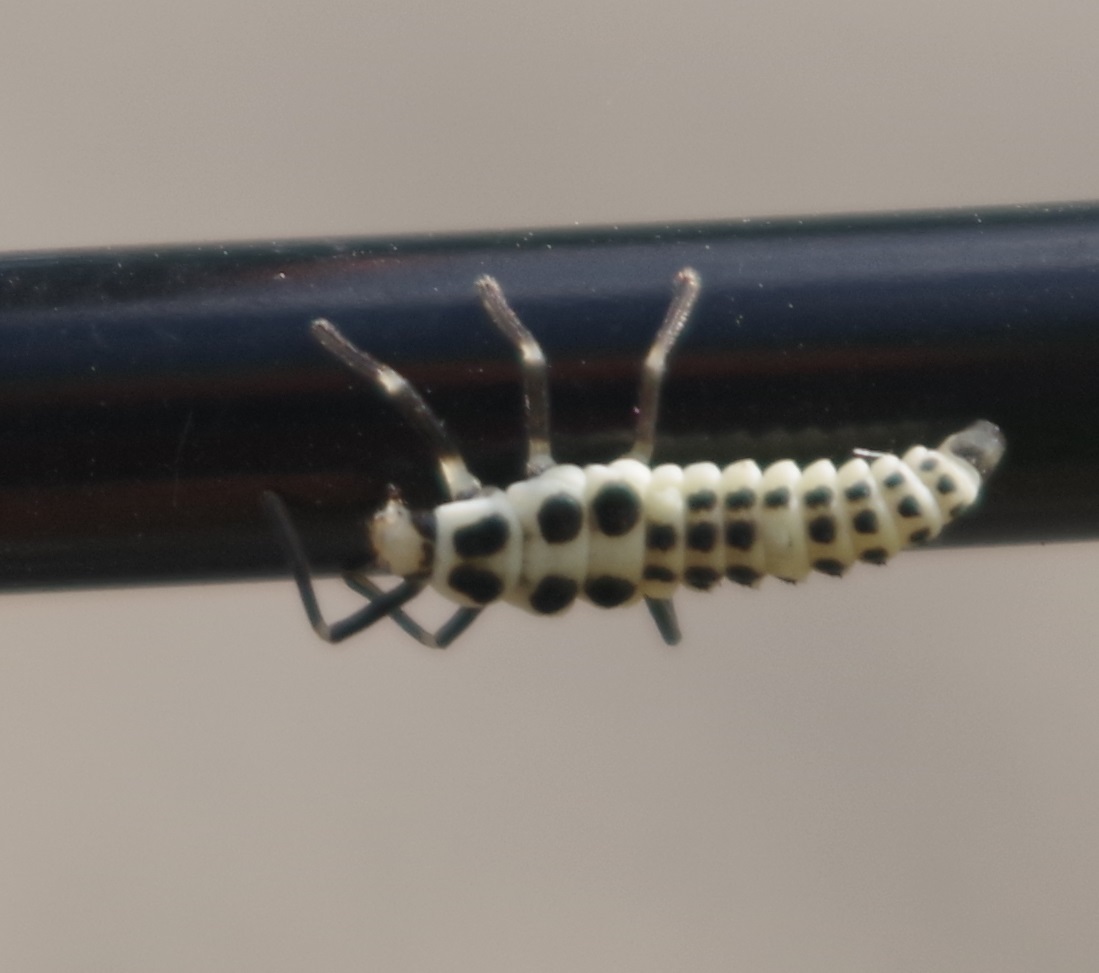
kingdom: Animalia
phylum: Arthropoda
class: Insecta
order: Coleoptera
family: Coccinellidae
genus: Calvia
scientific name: Calvia decemguttata
